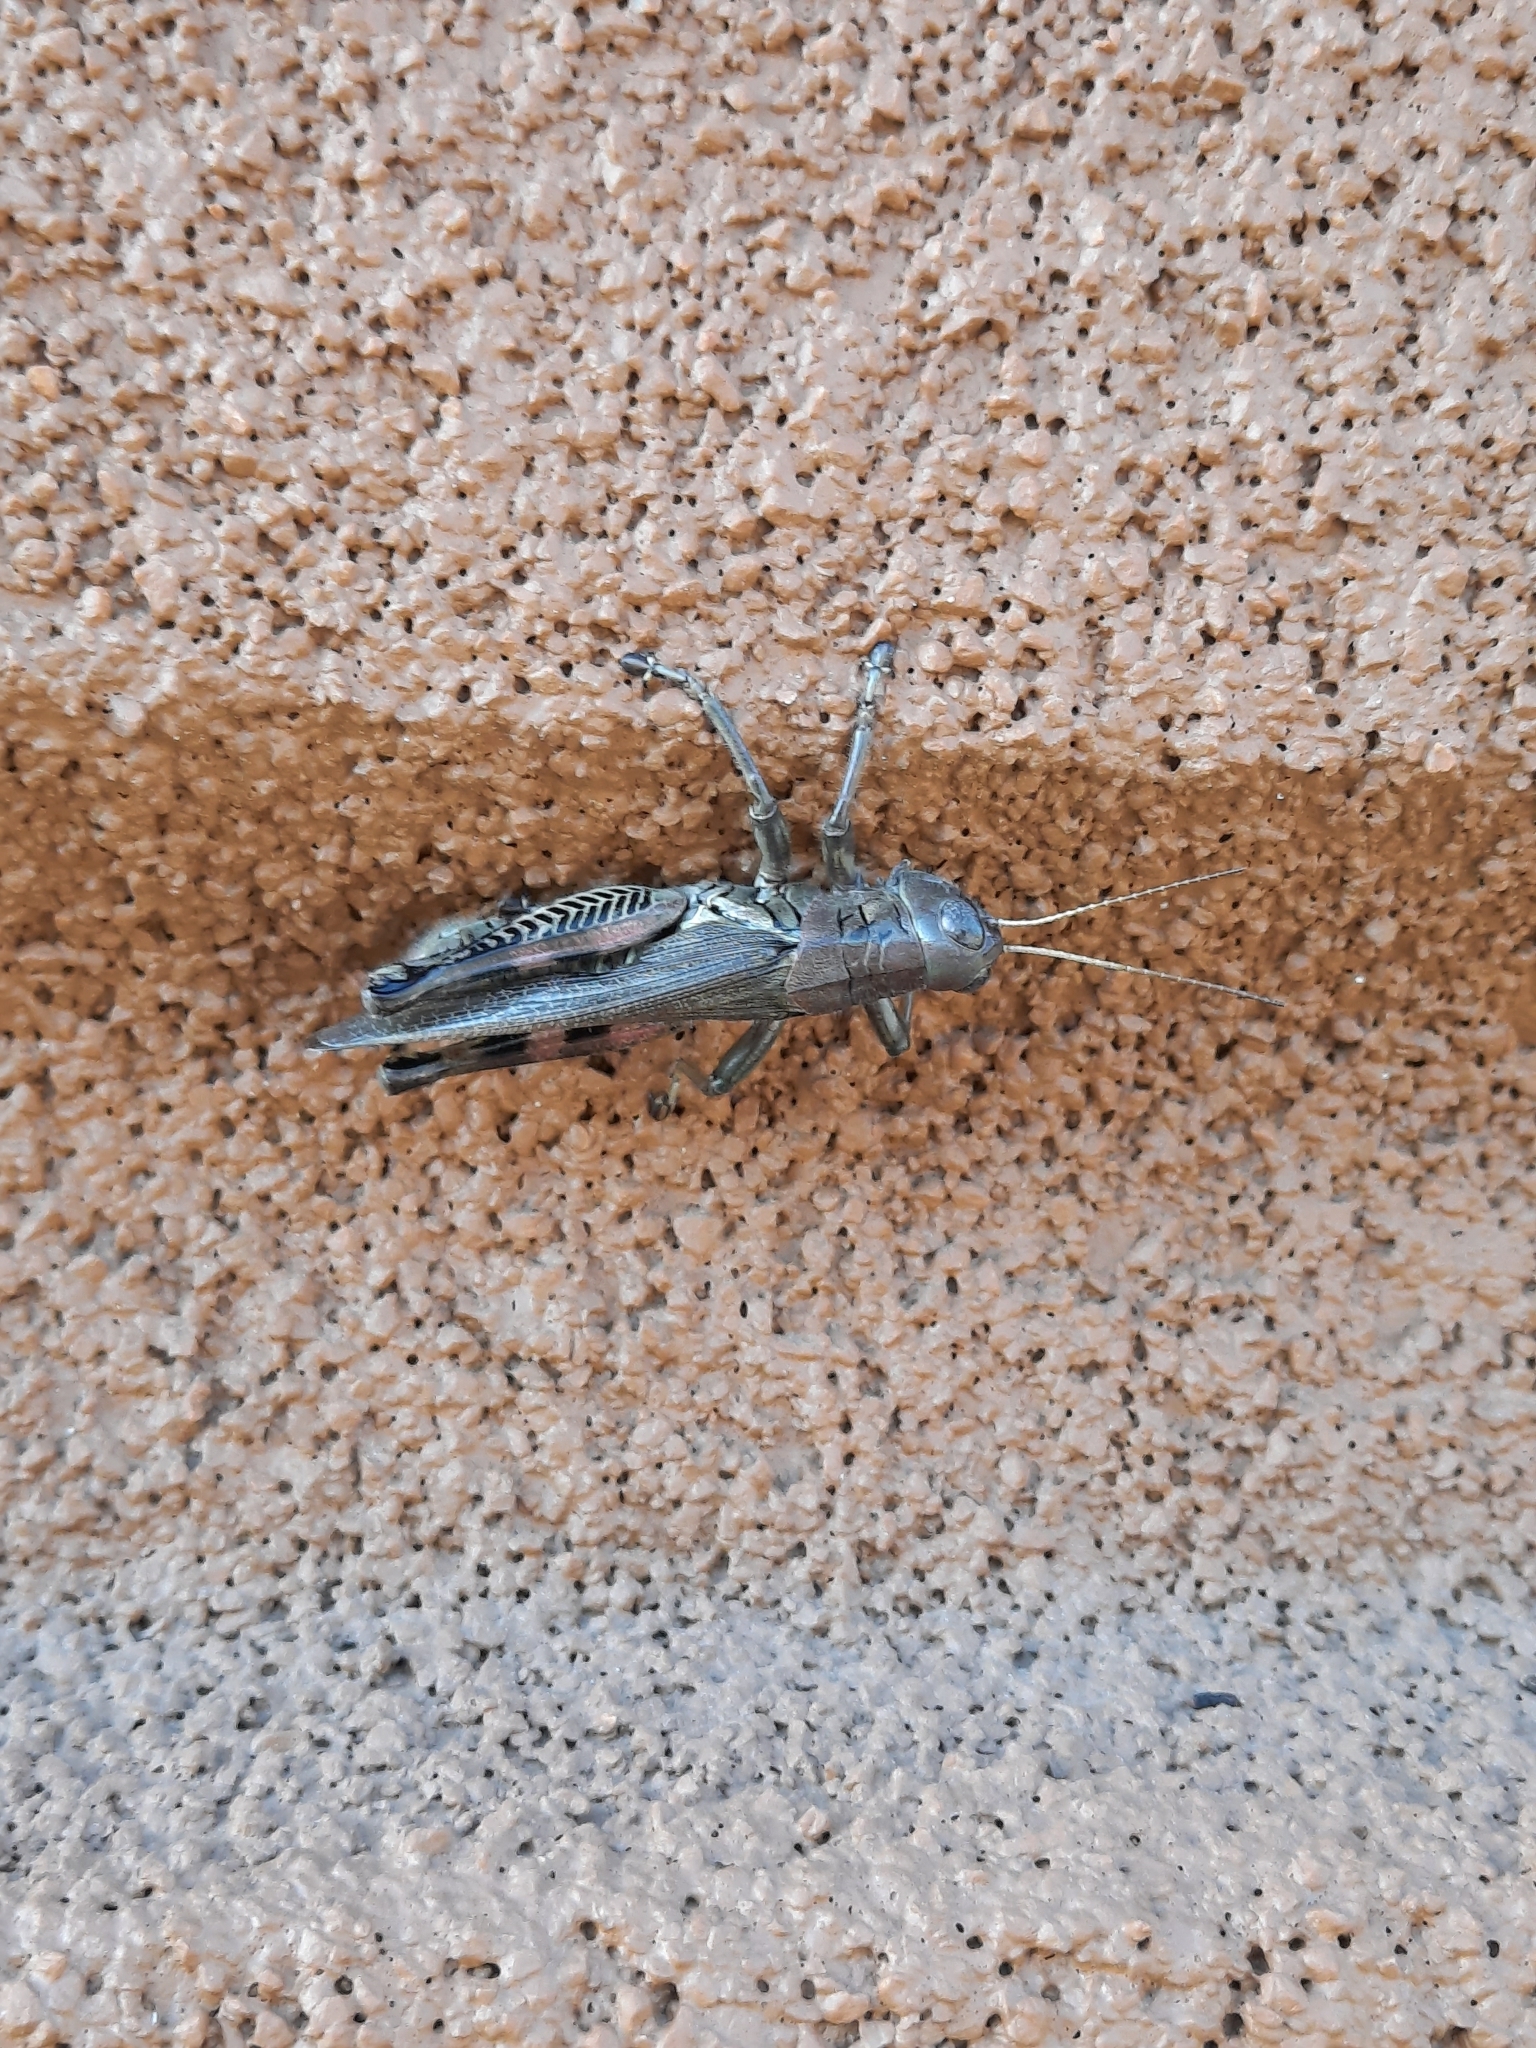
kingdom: Animalia
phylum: Arthropoda
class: Insecta
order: Orthoptera
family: Acrididae
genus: Melanoplus
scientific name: Melanoplus differentialis
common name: Differential grasshopper
